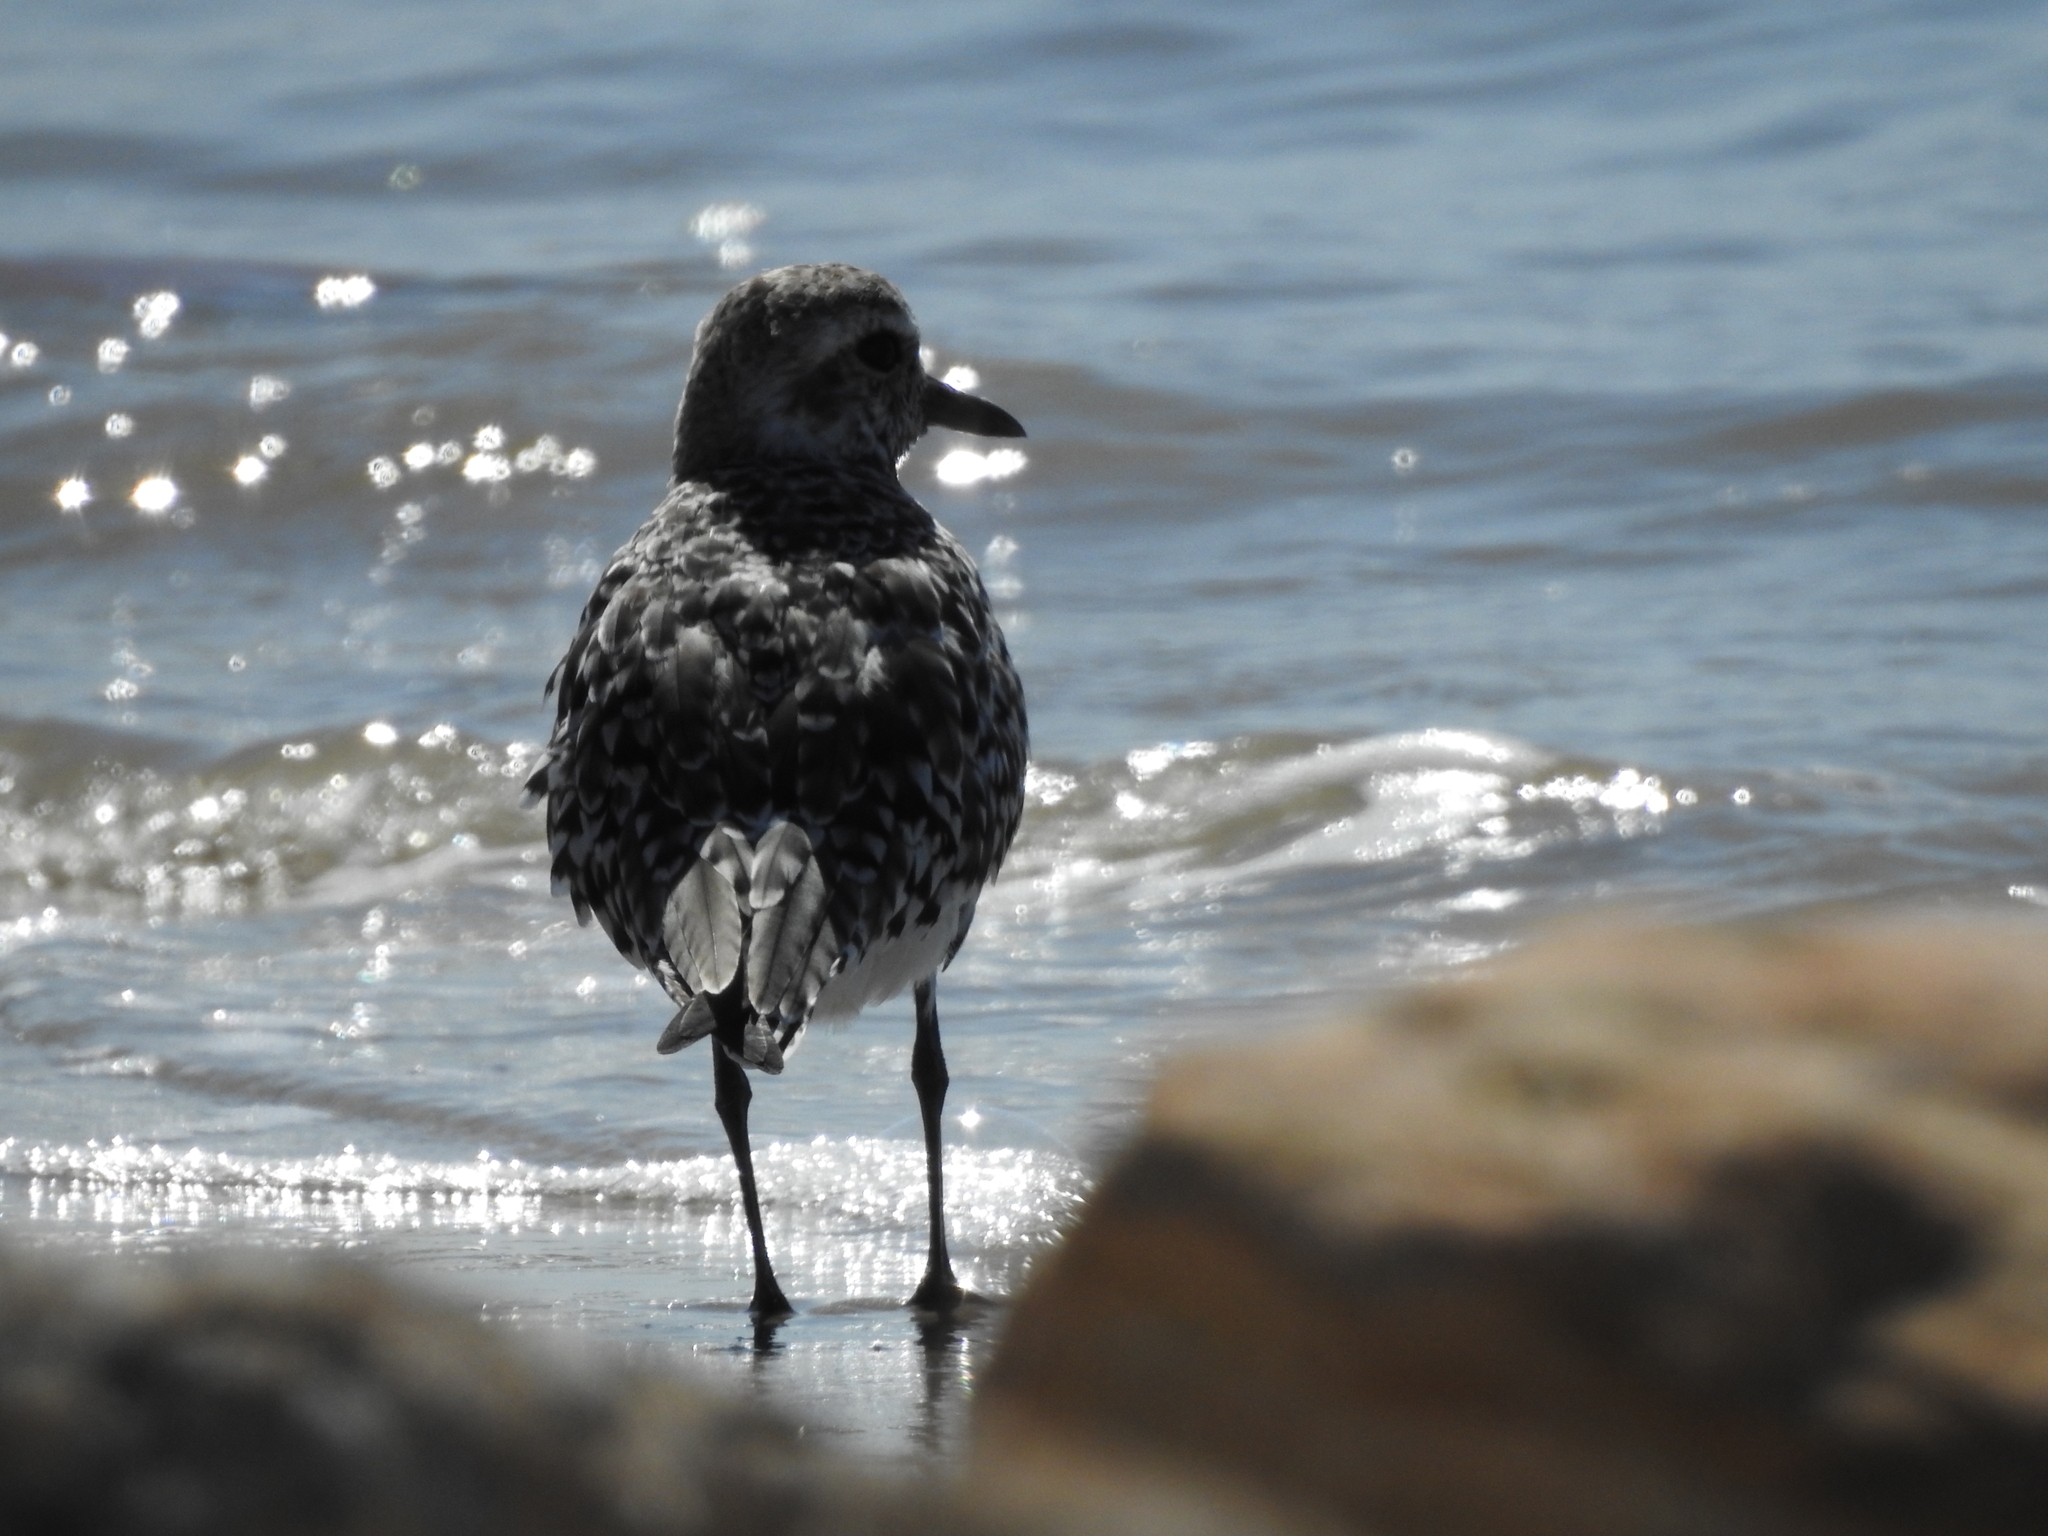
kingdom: Animalia
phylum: Chordata
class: Aves
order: Charadriiformes
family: Charadriidae
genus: Pluvialis
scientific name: Pluvialis squatarola
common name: Grey plover
